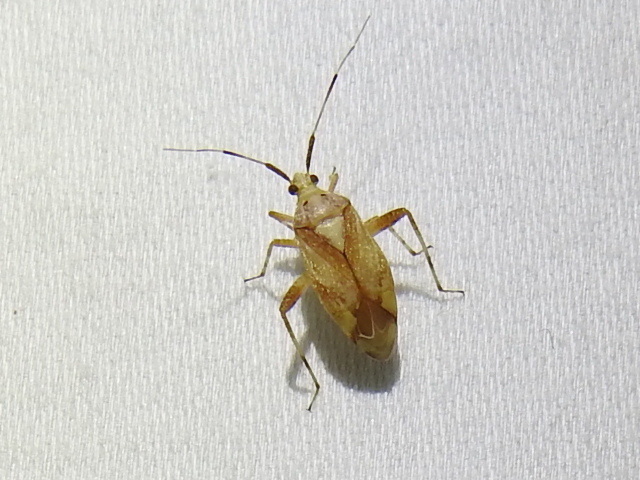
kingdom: Animalia
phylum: Arthropoda
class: Insecta
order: Hemiptera
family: Miridae
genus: Taedia
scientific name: Taedia celtidis
